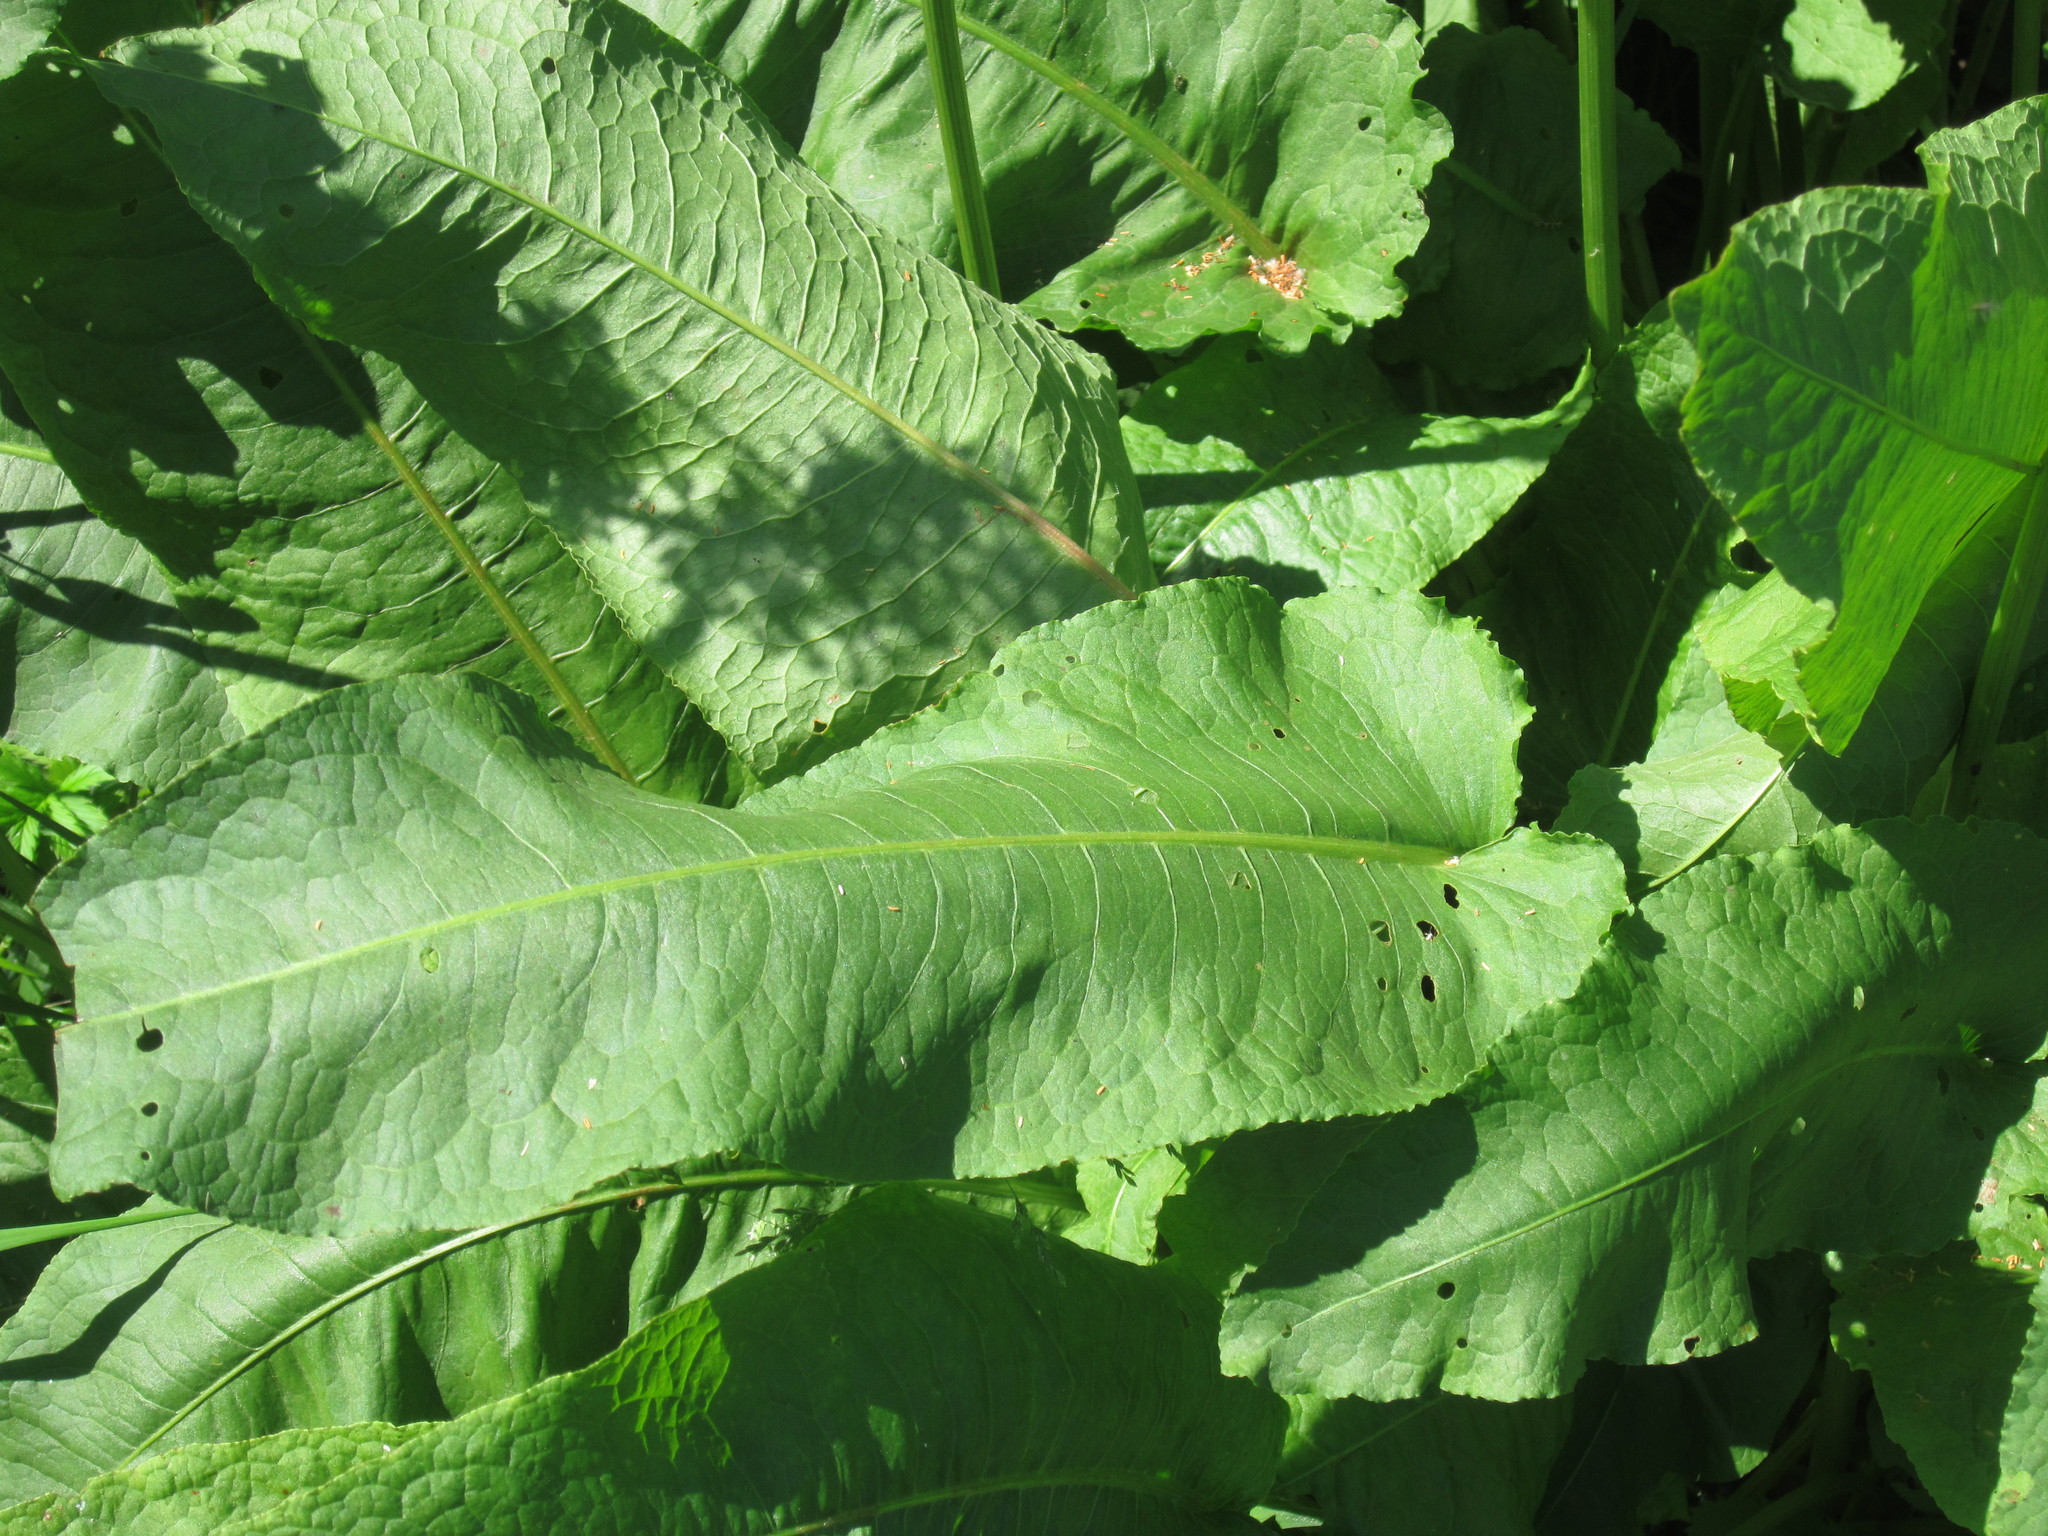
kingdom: Plantae
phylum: Tracheophyta
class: Magnoliopsida
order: Caryophyllales
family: Polygonaceae
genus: Rumex
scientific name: Rumex confertus
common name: Russian dock
